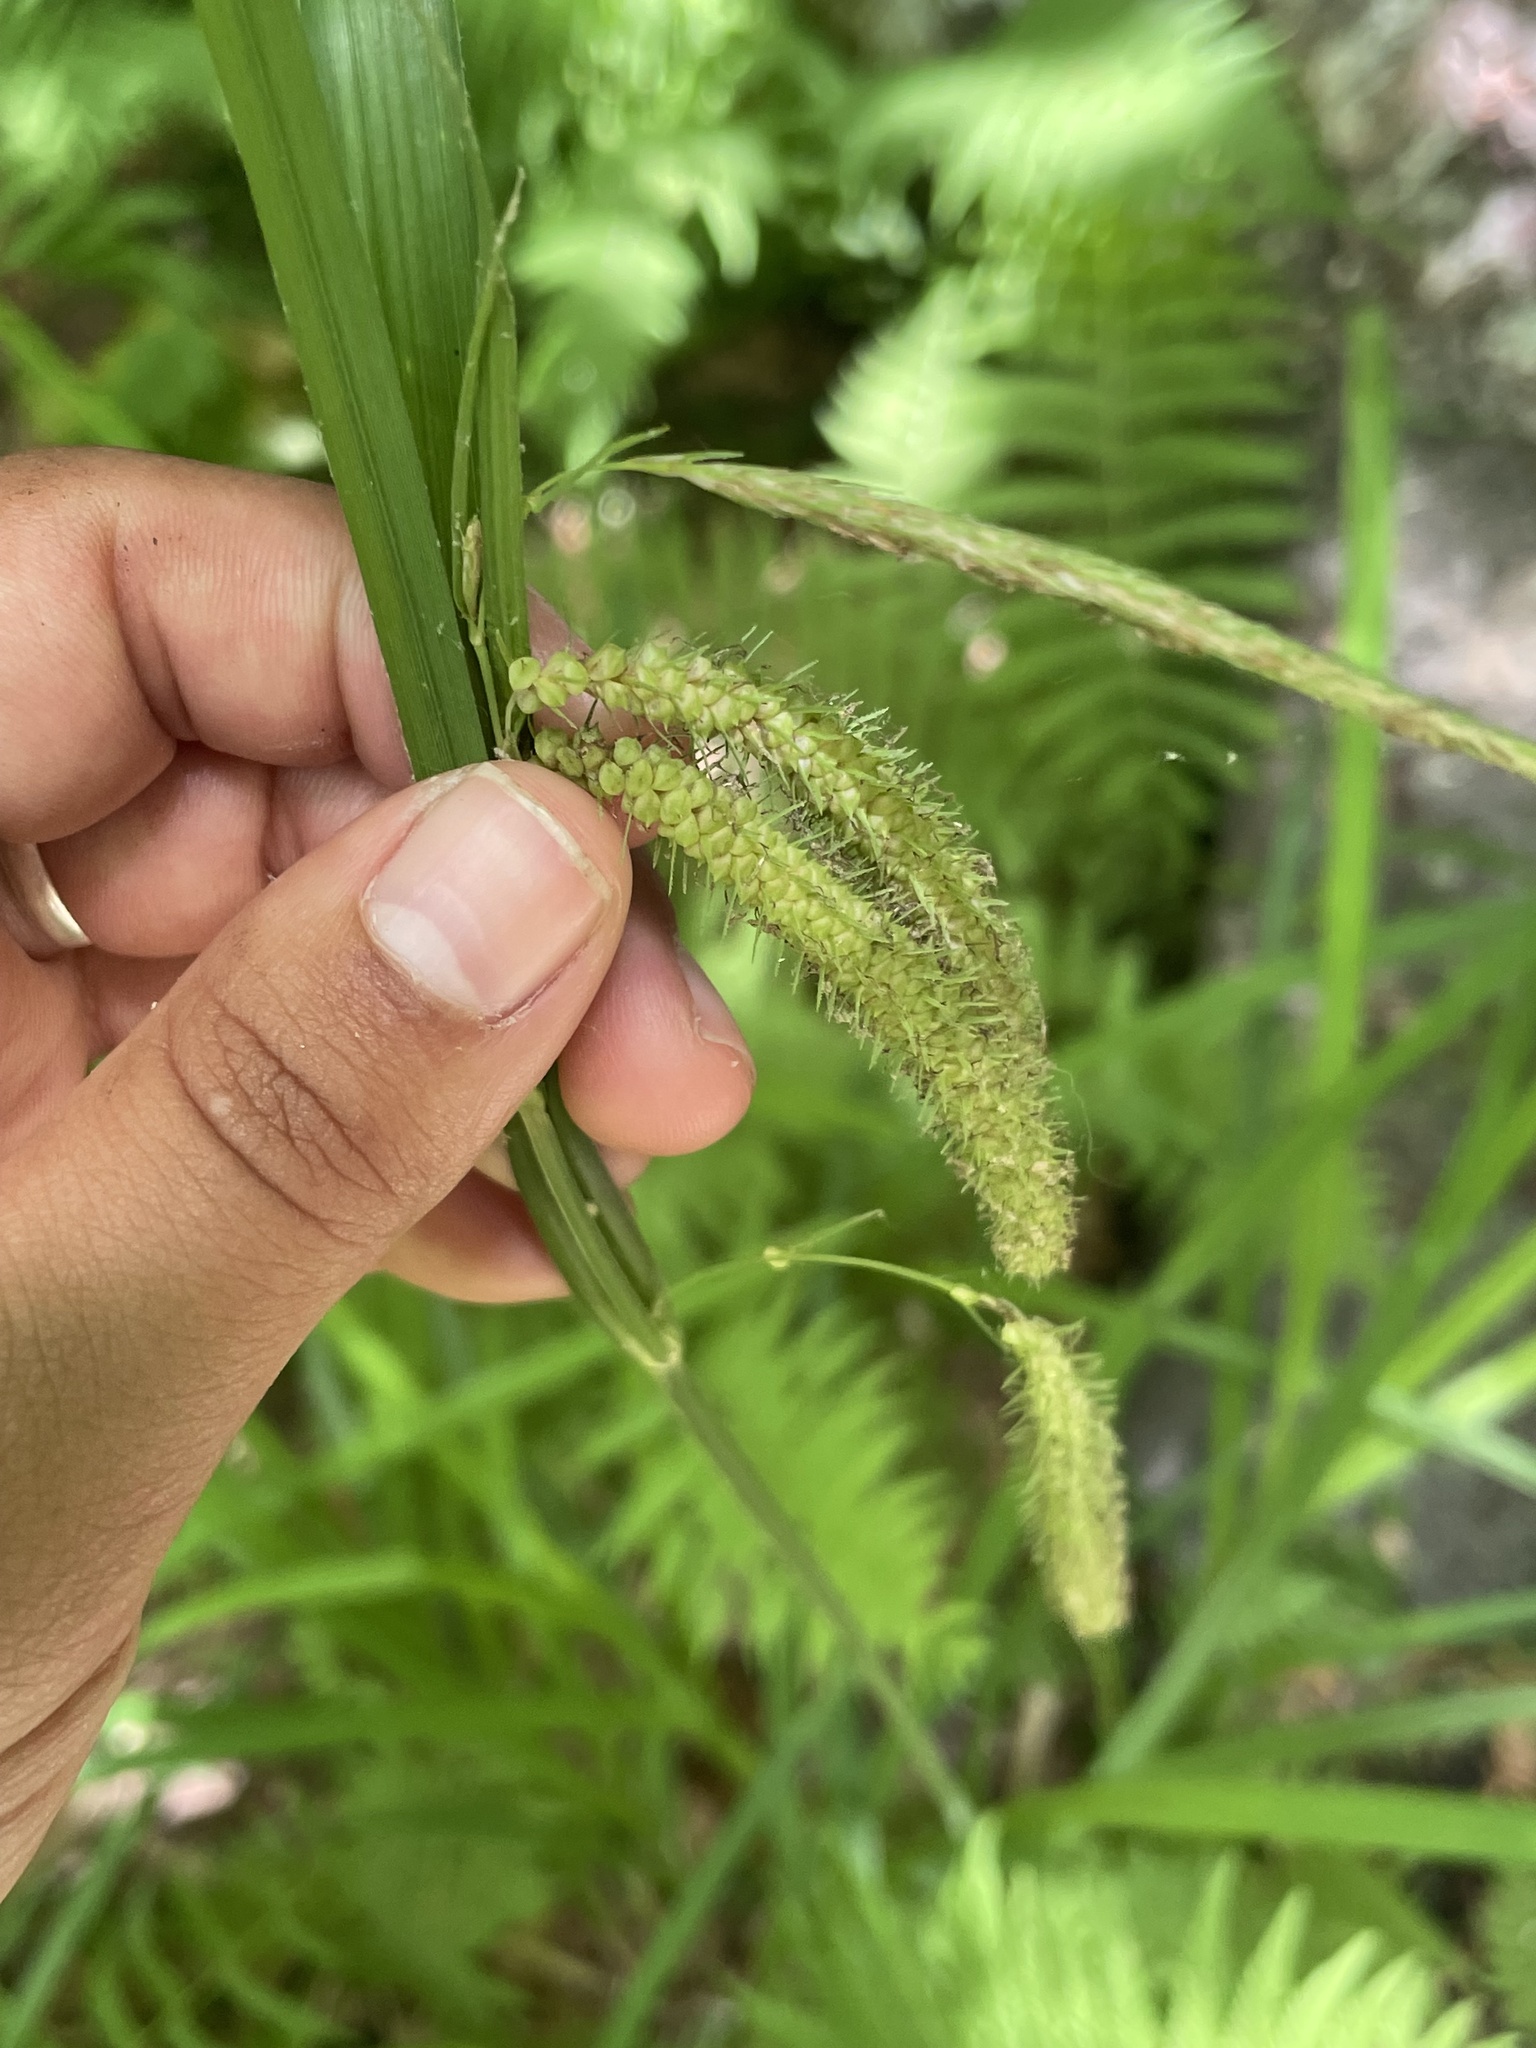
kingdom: Plantae
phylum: Tracheophyta
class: Liliopsida
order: Poales
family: Cyperaceae
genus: Carex
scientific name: Carex crinita
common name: Fringed sedge
